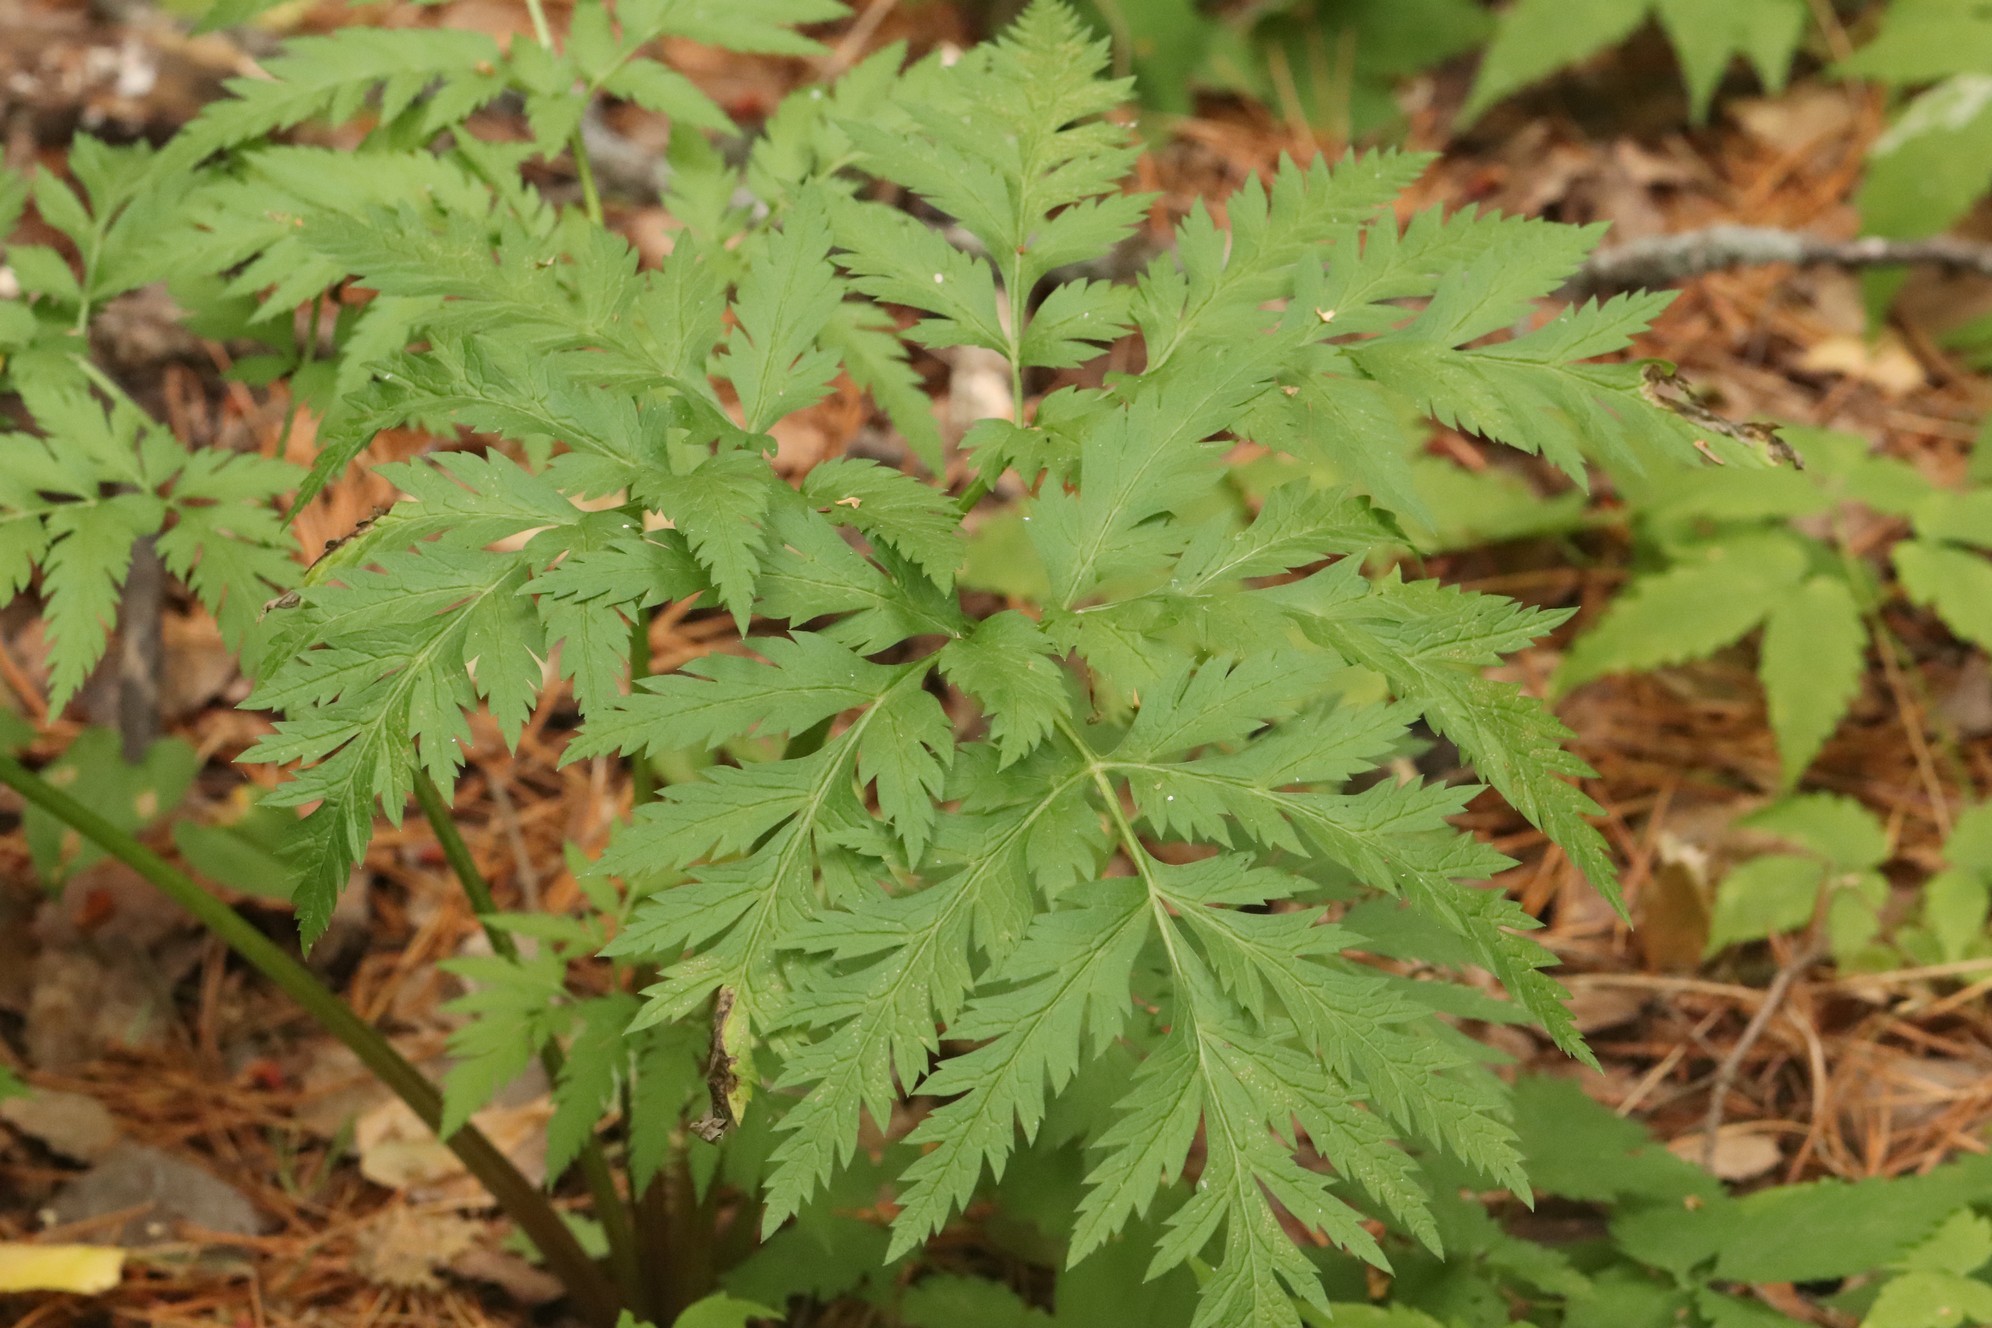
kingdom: Plantae
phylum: Tracheophyta
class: Magnoliopsida
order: Apiales
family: Apiaceae
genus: Pleurospermum
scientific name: Pleurospermum uralense
